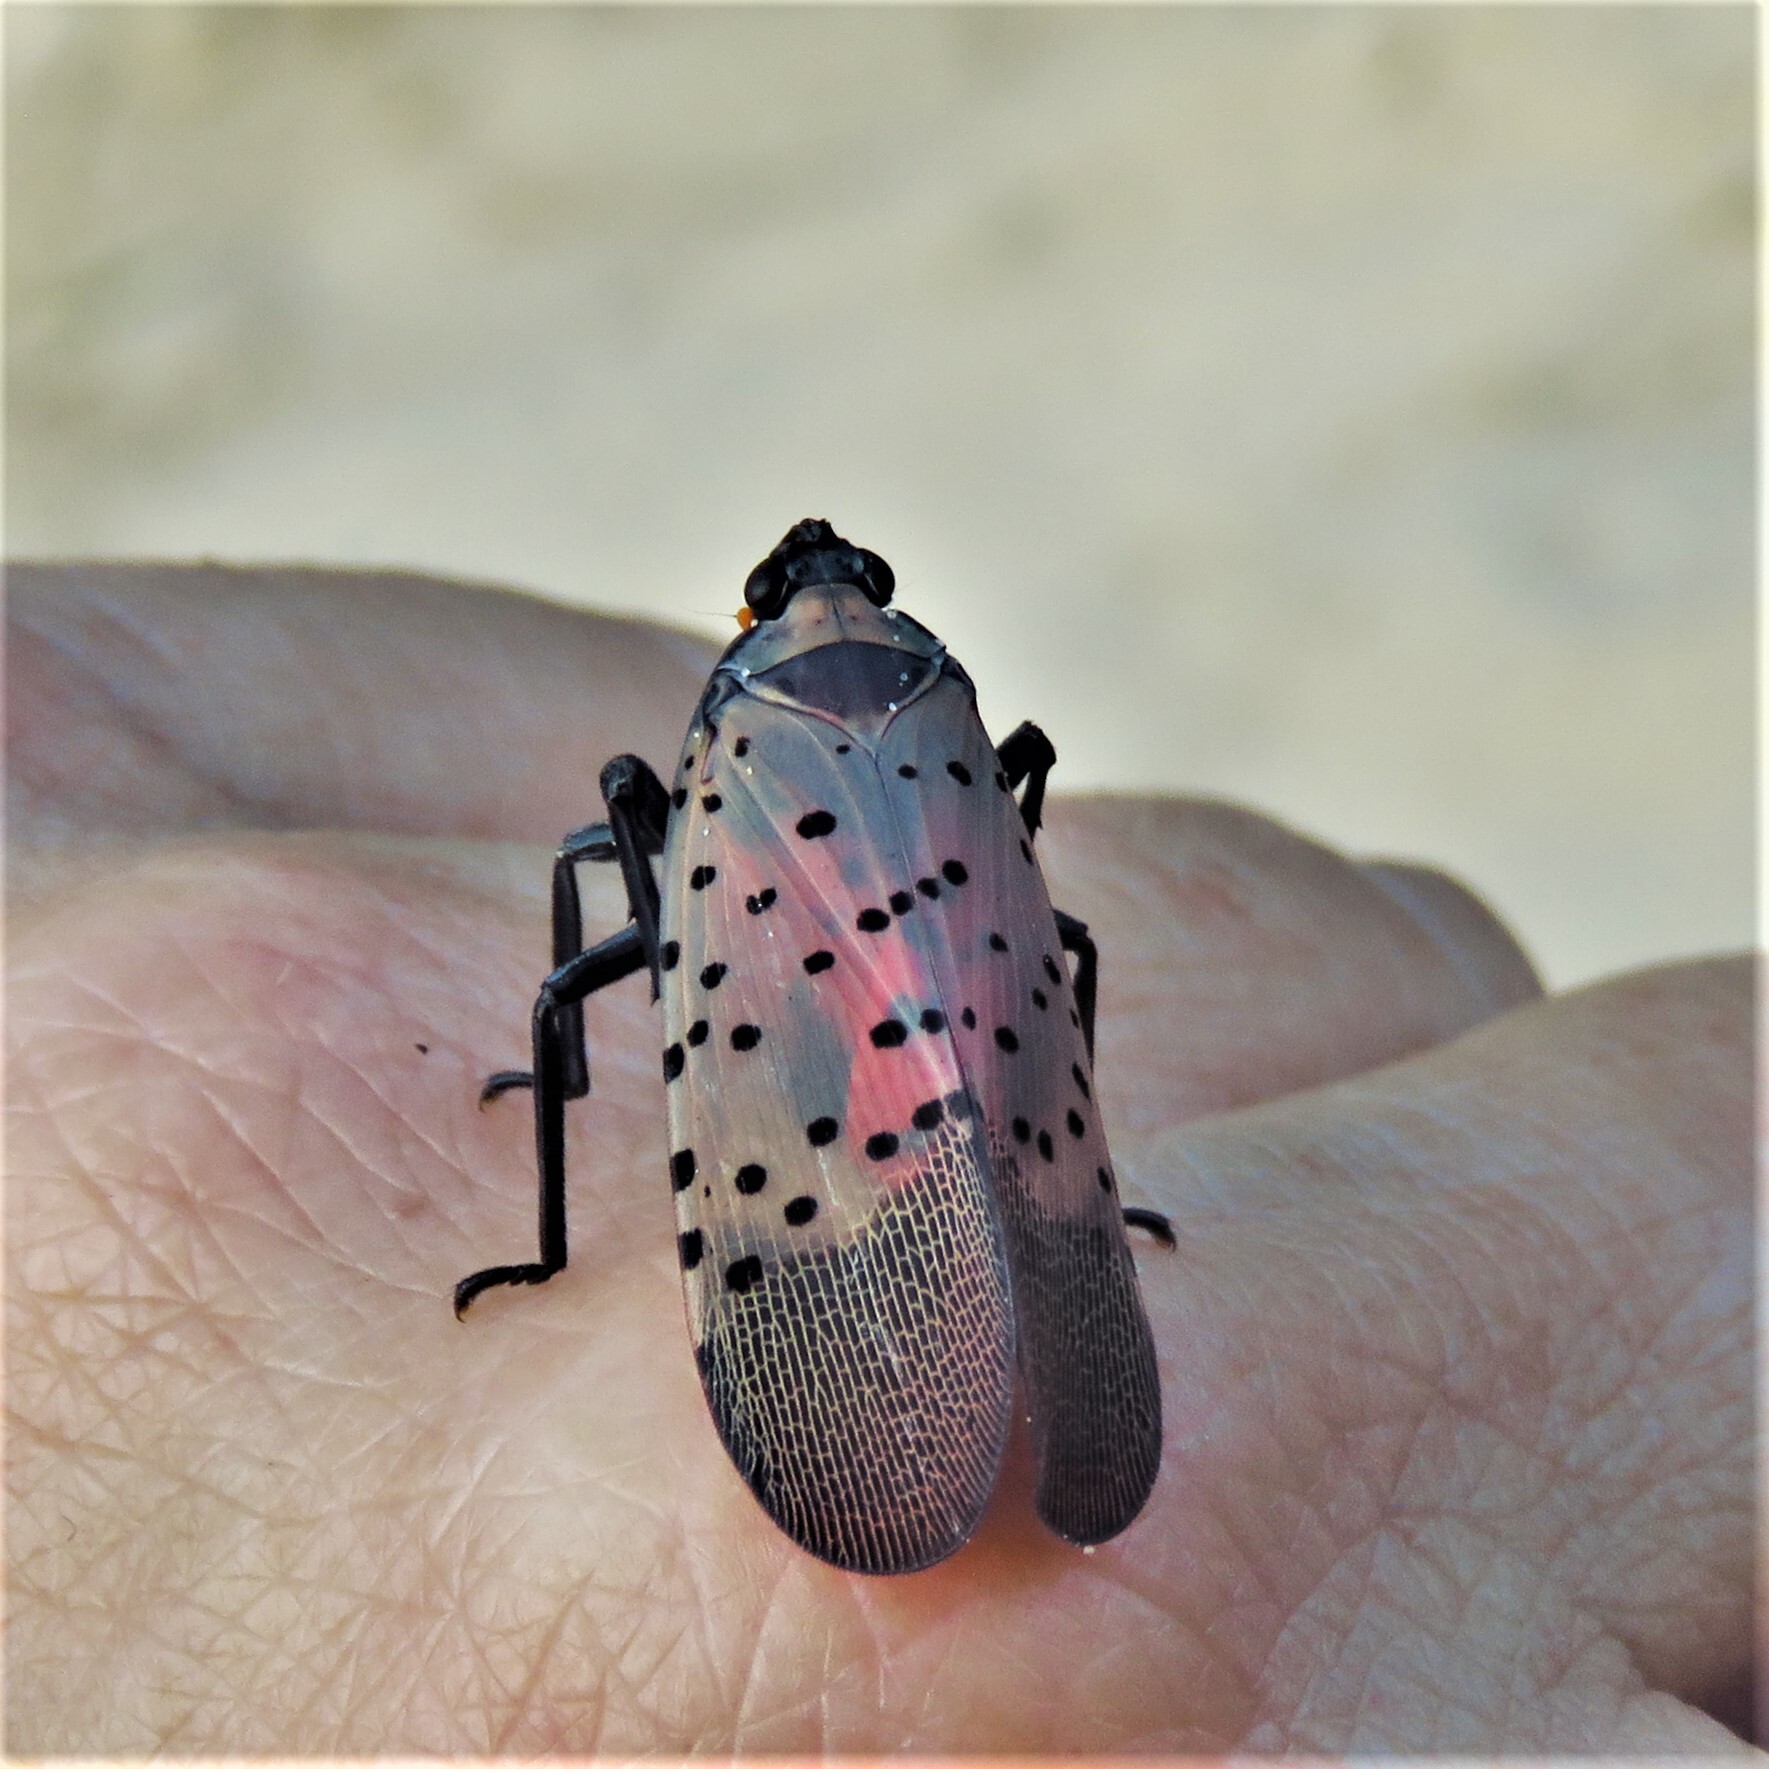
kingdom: Animalia
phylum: Arthropoda
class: Insecta
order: Hemiptera
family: Fulgoridae
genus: Lycorma
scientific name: Lycorma delicatula
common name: Spotted lanternfly
